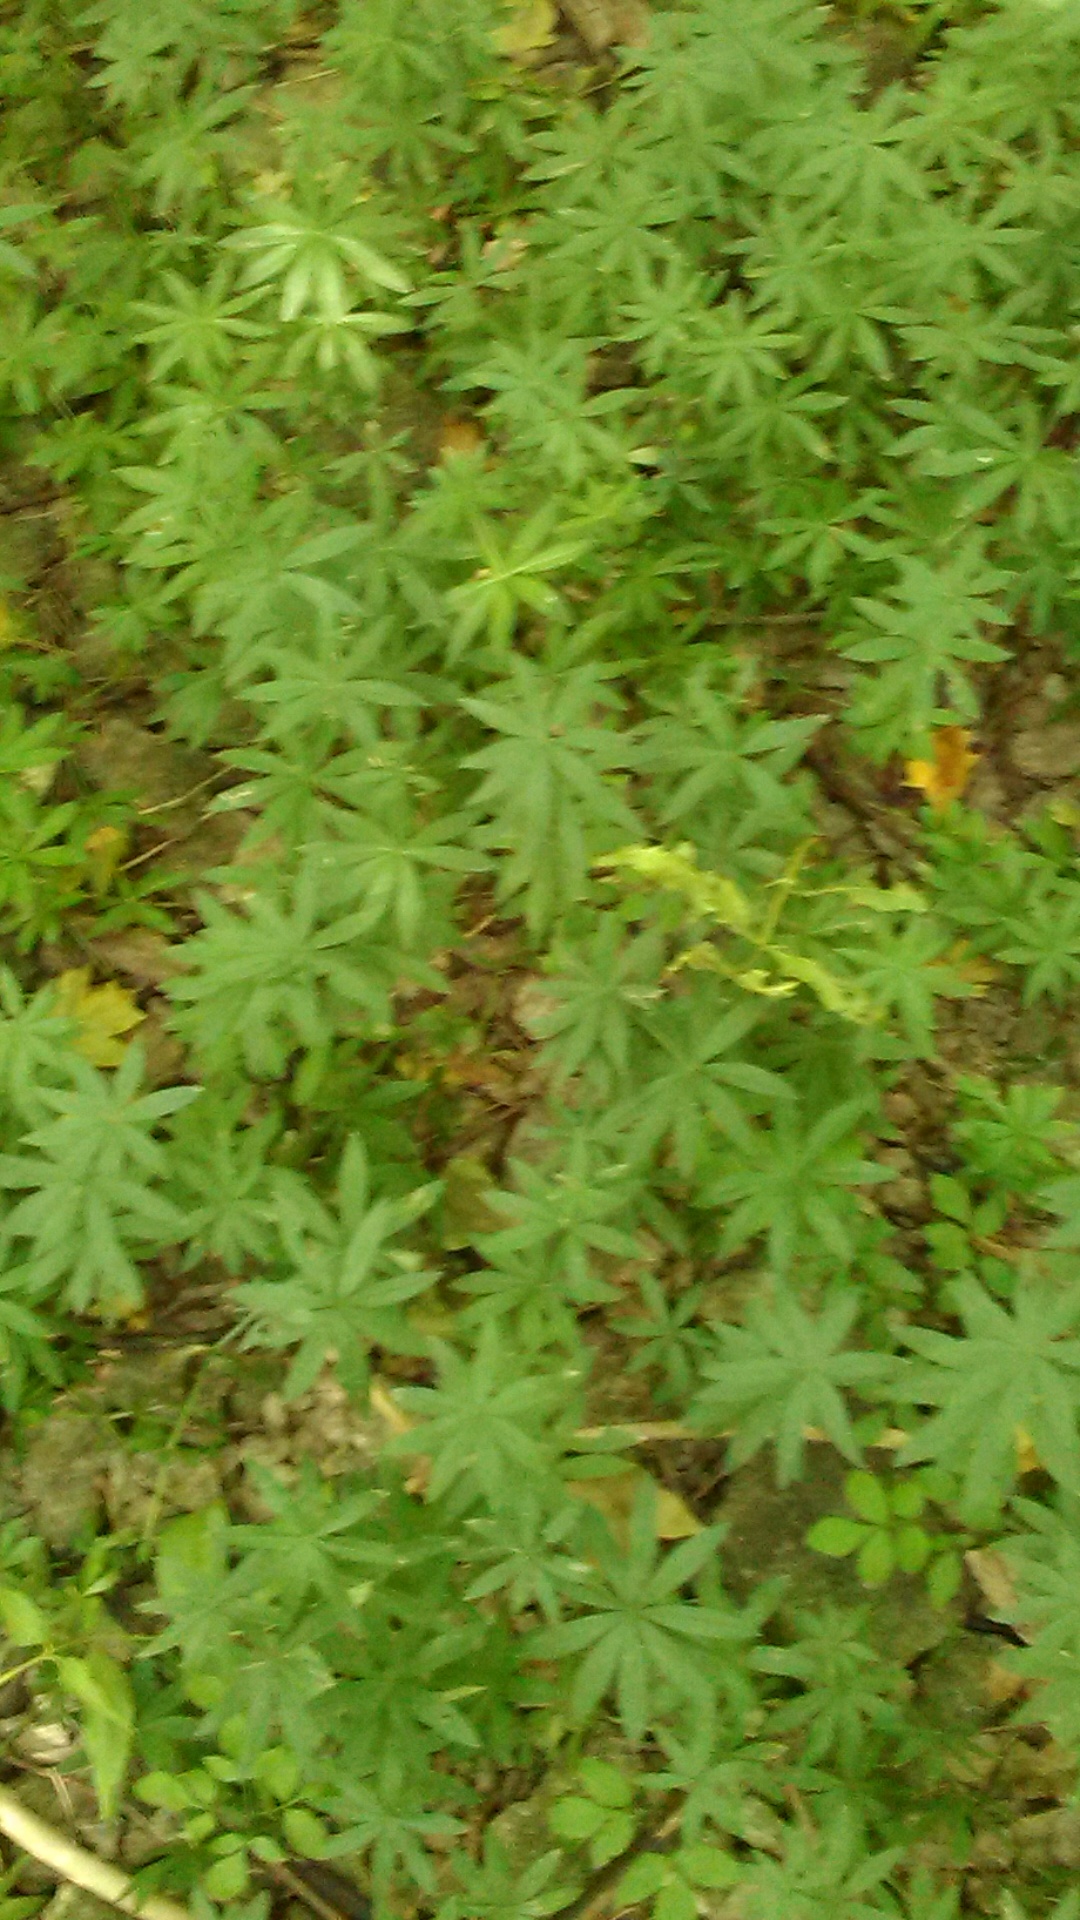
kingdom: Plantae
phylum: Tracheophyta
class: Magnoliopsida
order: Gentianales
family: Rubiaceae
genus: Galium
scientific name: Galium odoratum
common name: Sweet woodruff
